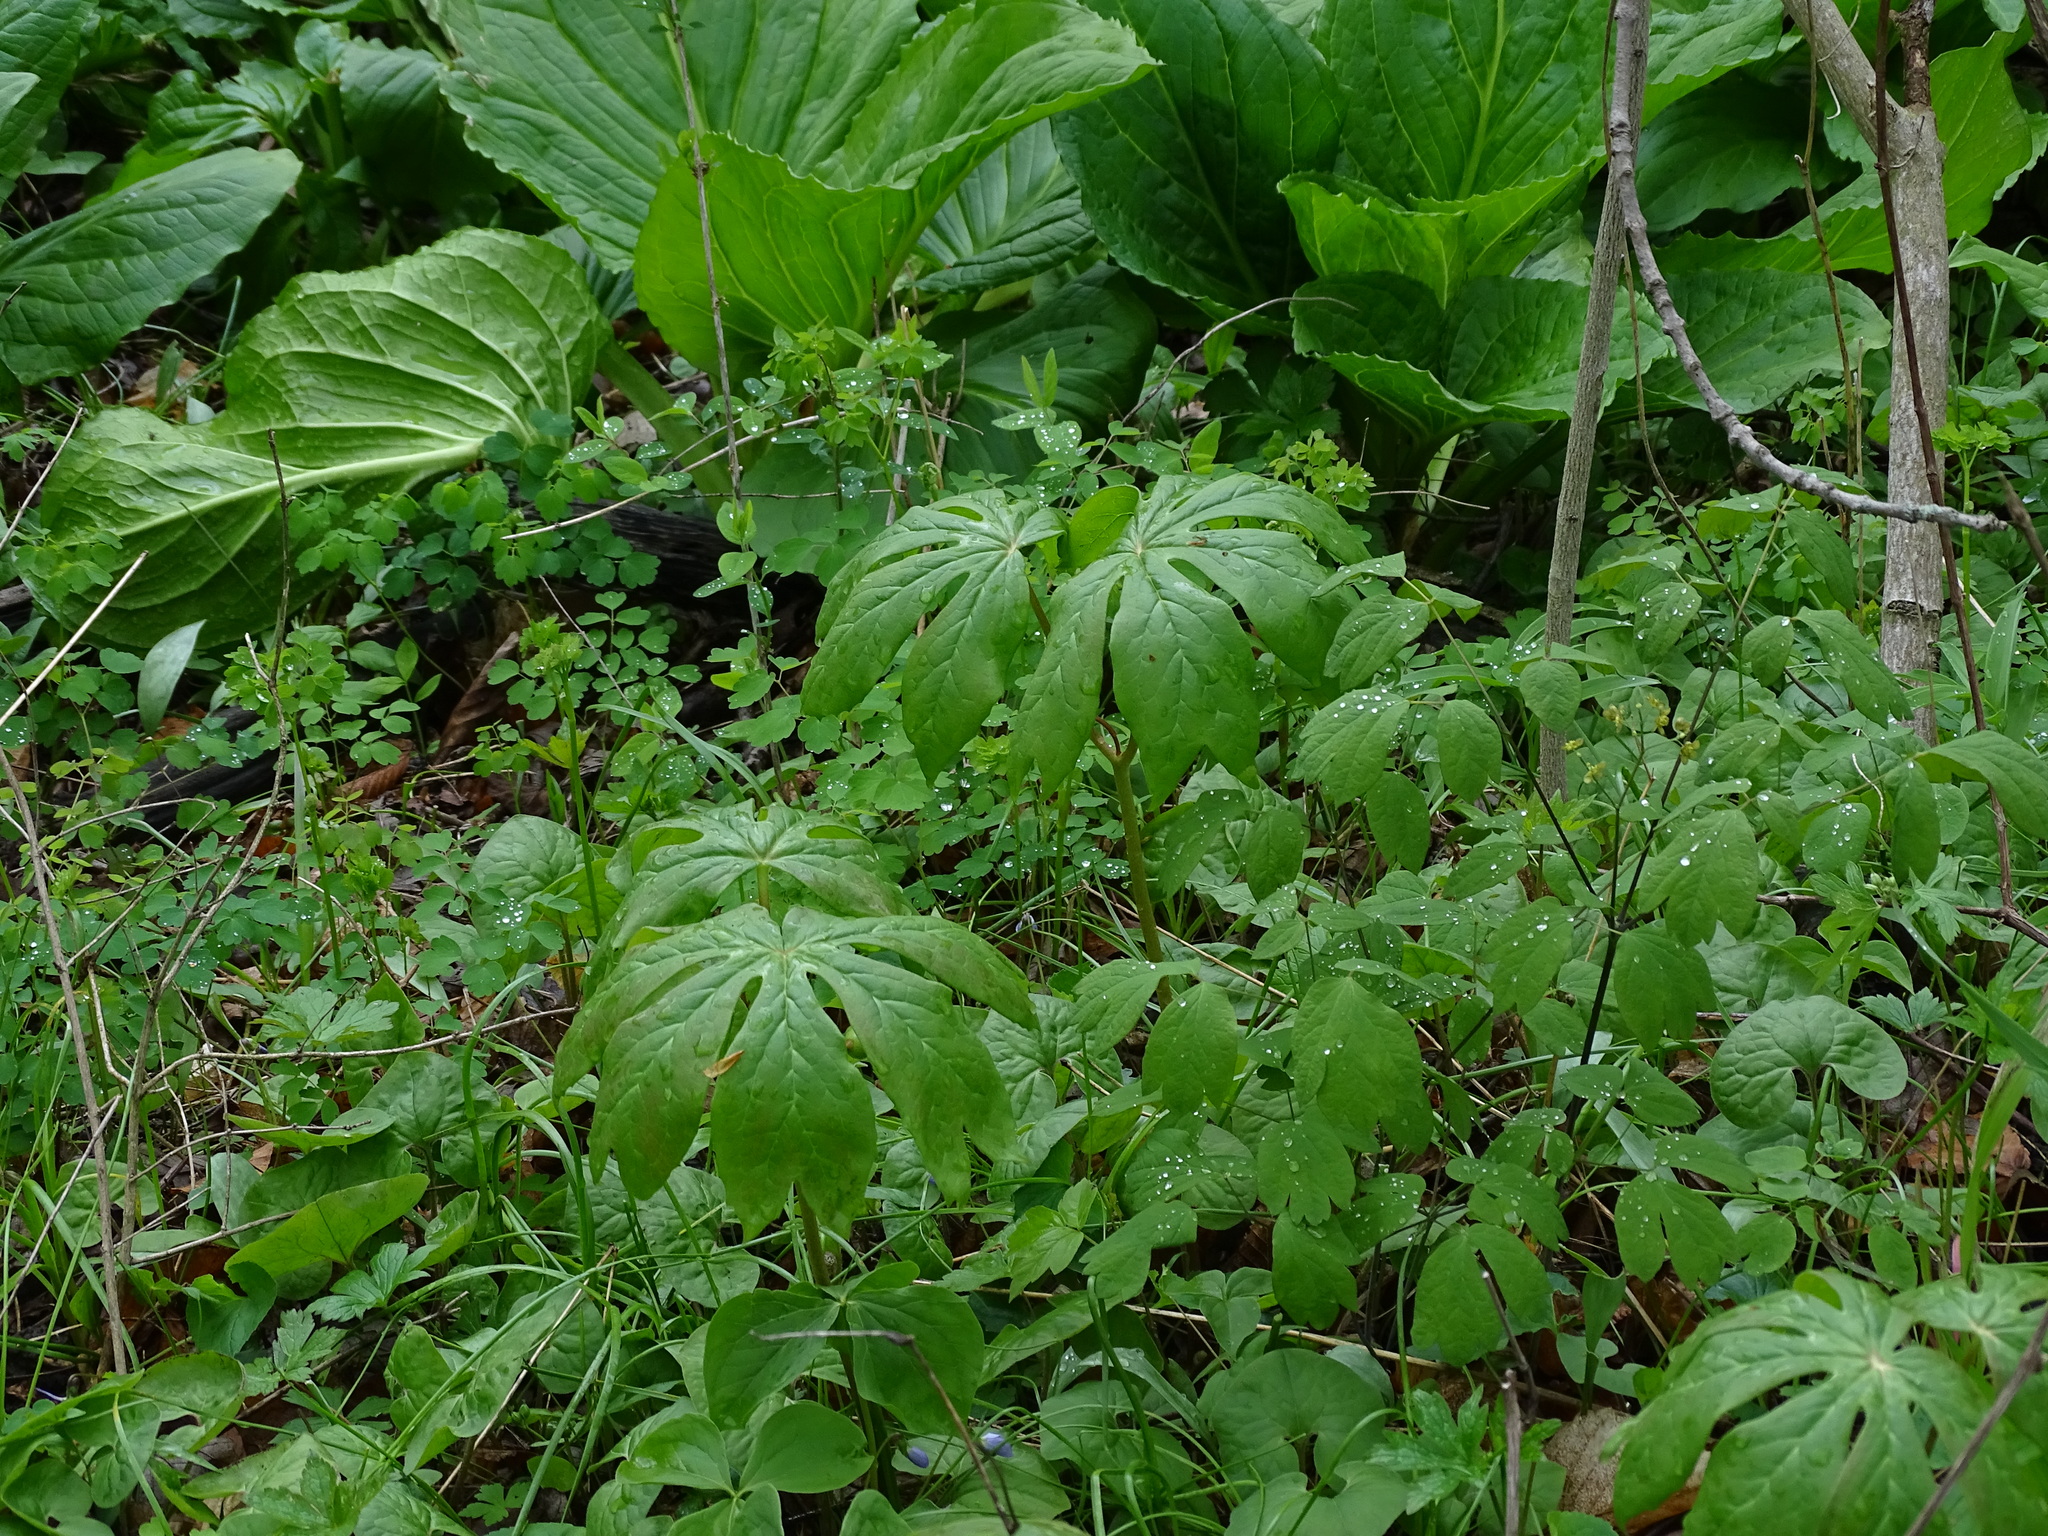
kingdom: Plantae
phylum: Tracheophyta
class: Magnoliopsida
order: Ranunculales
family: Berberidaceae
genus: Podophyllum
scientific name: Podophyllum peltatum
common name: Wild mandrake
